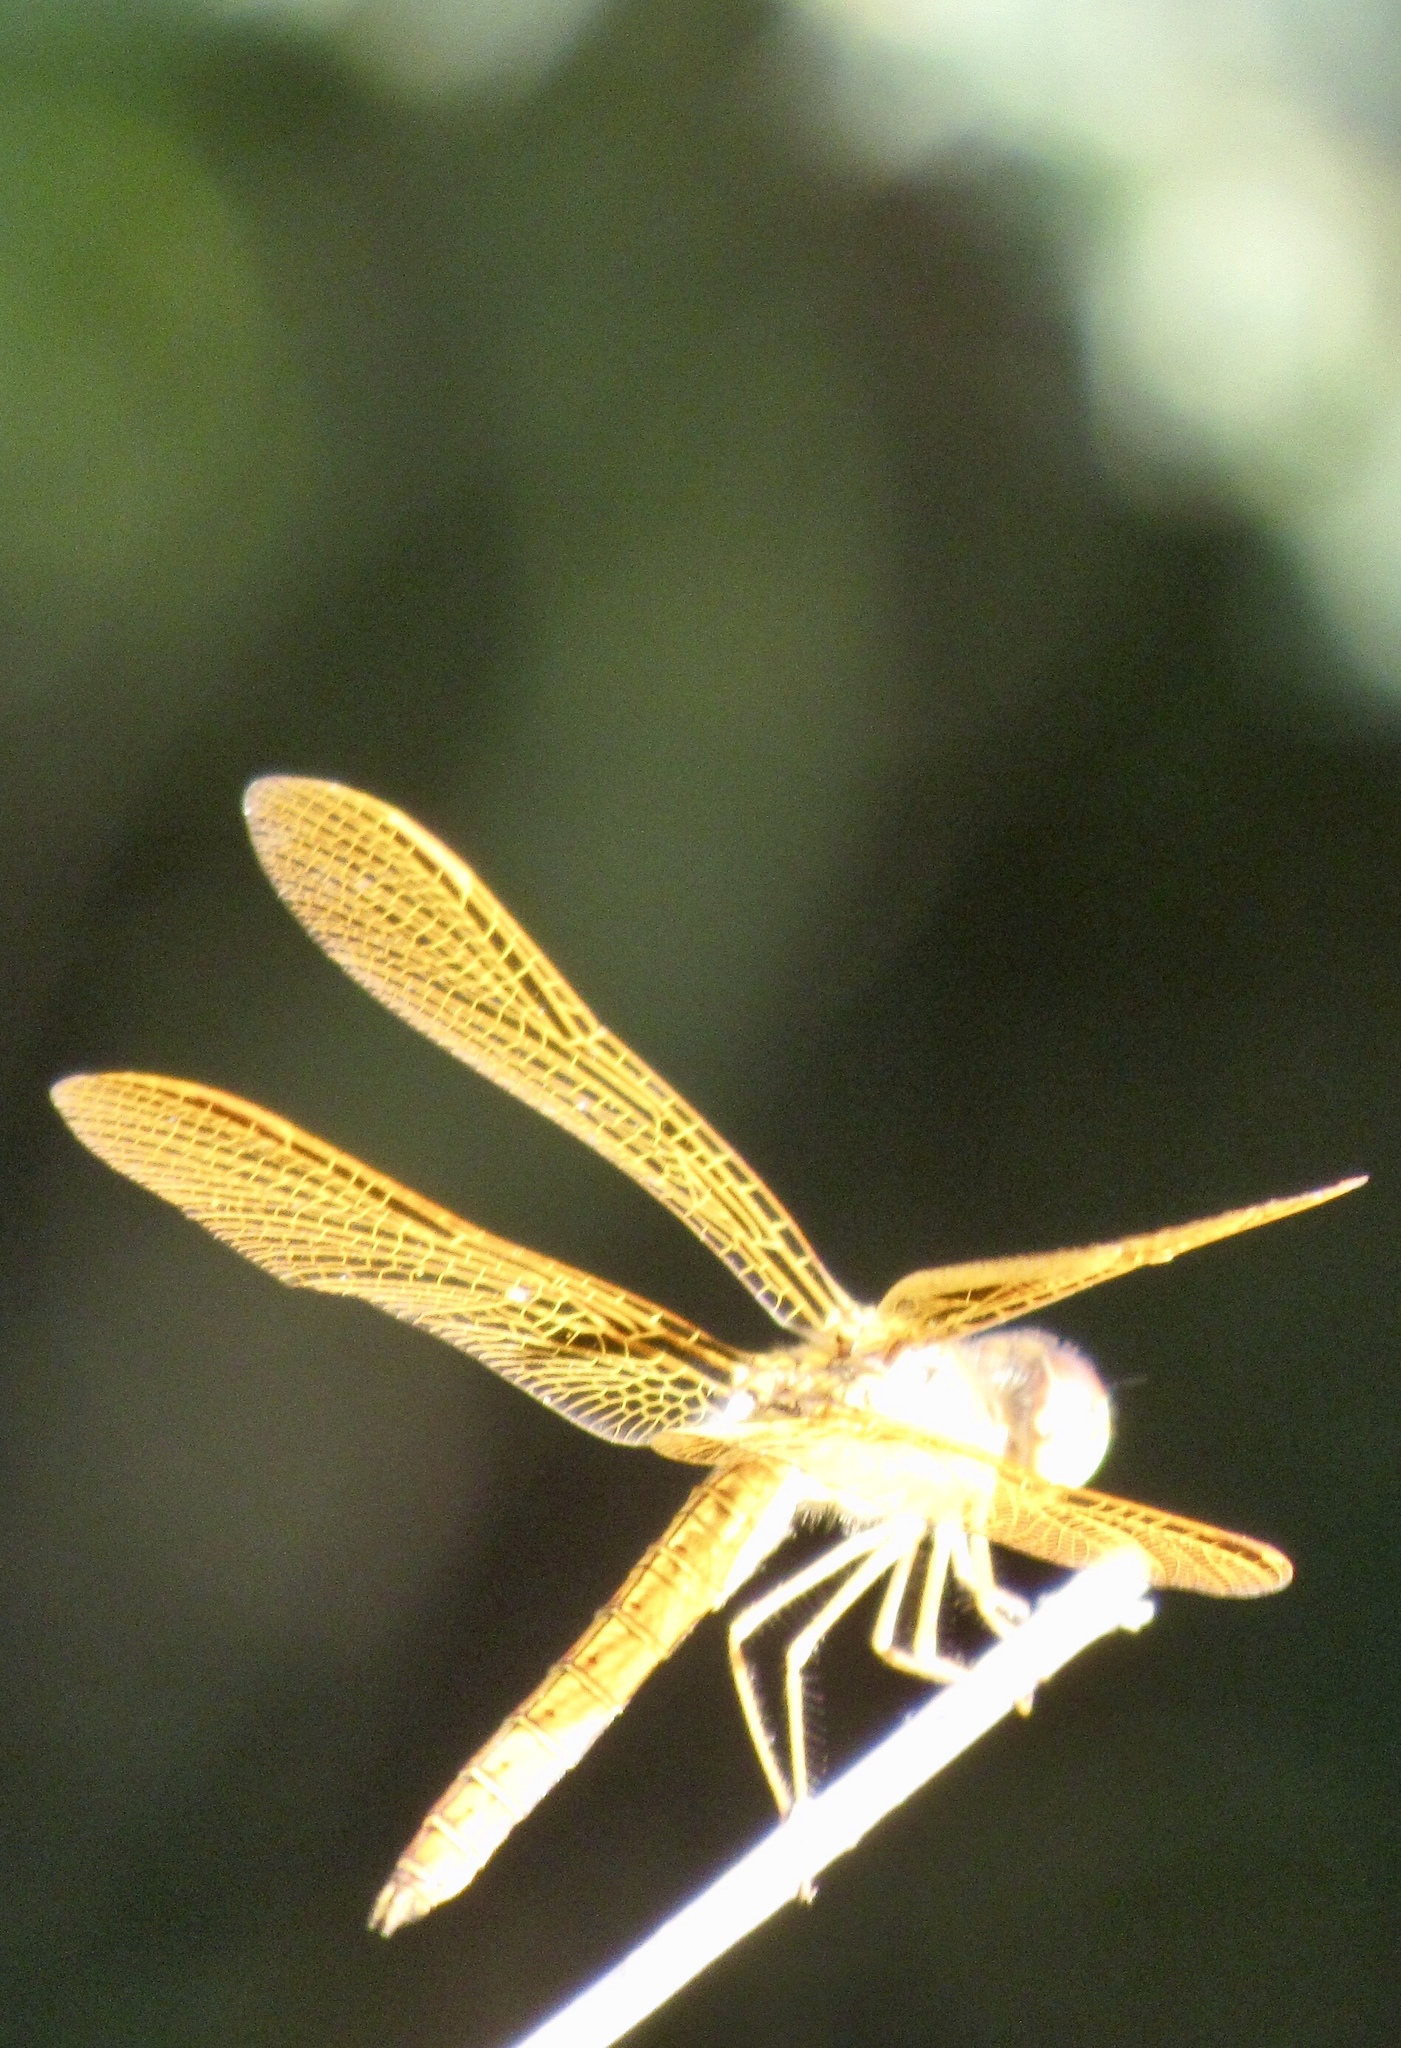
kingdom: Animalia
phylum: Arthropoda
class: Insecta
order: Odonata
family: Libellulidae
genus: Perithemis
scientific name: Perithemis intensa
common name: Mexican amberwing
